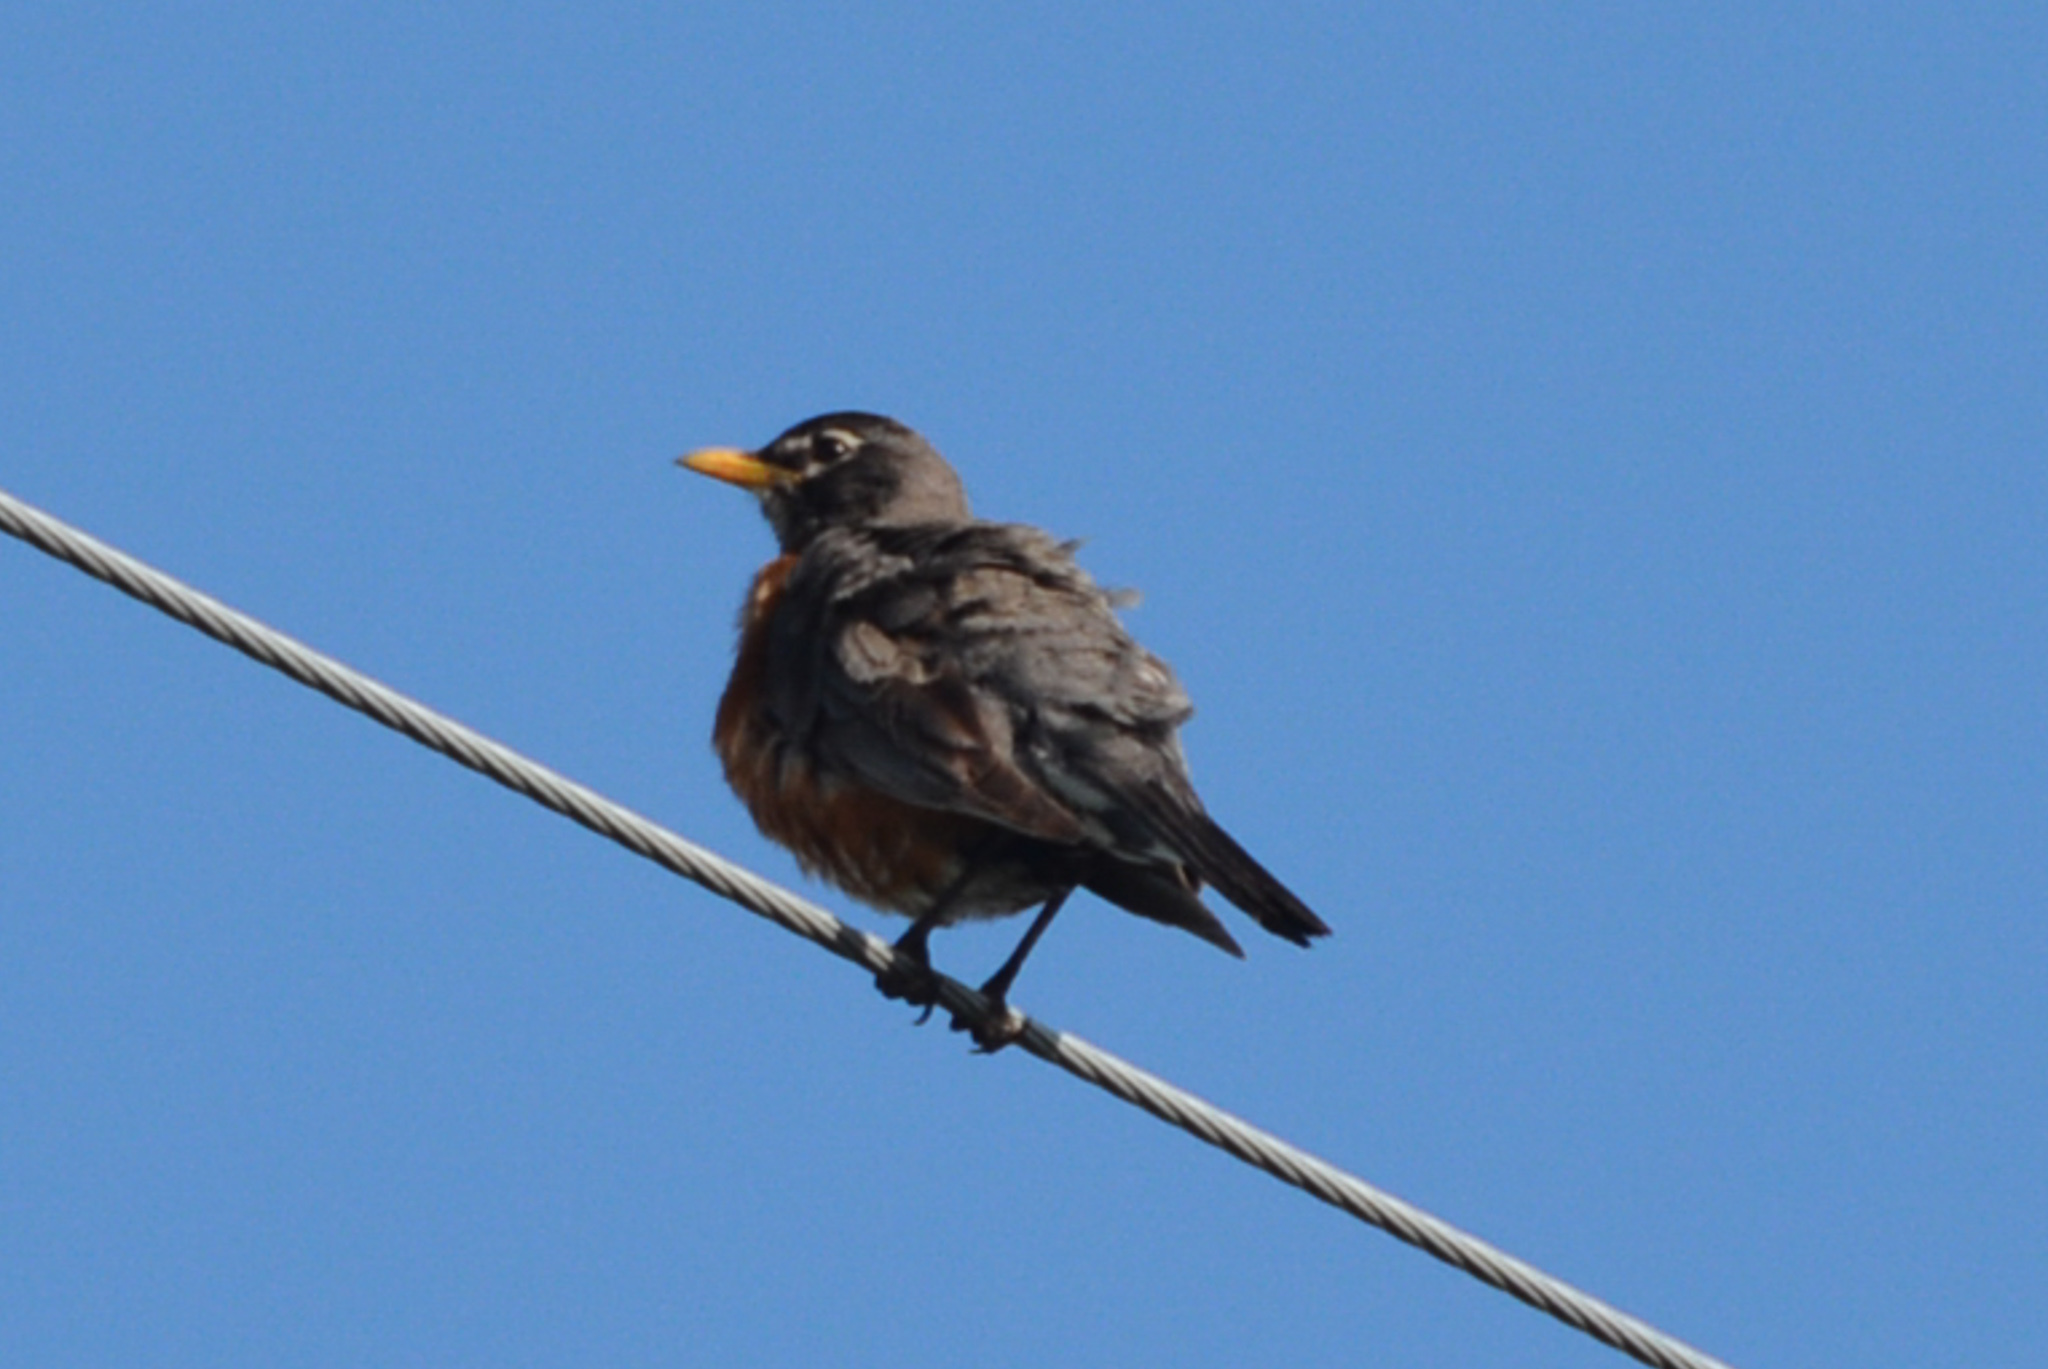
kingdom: Animalia
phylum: Chordata
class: Aves
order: Passeriformes
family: Turdidae
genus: Turdus
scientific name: Turdus migratorius
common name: American robin
